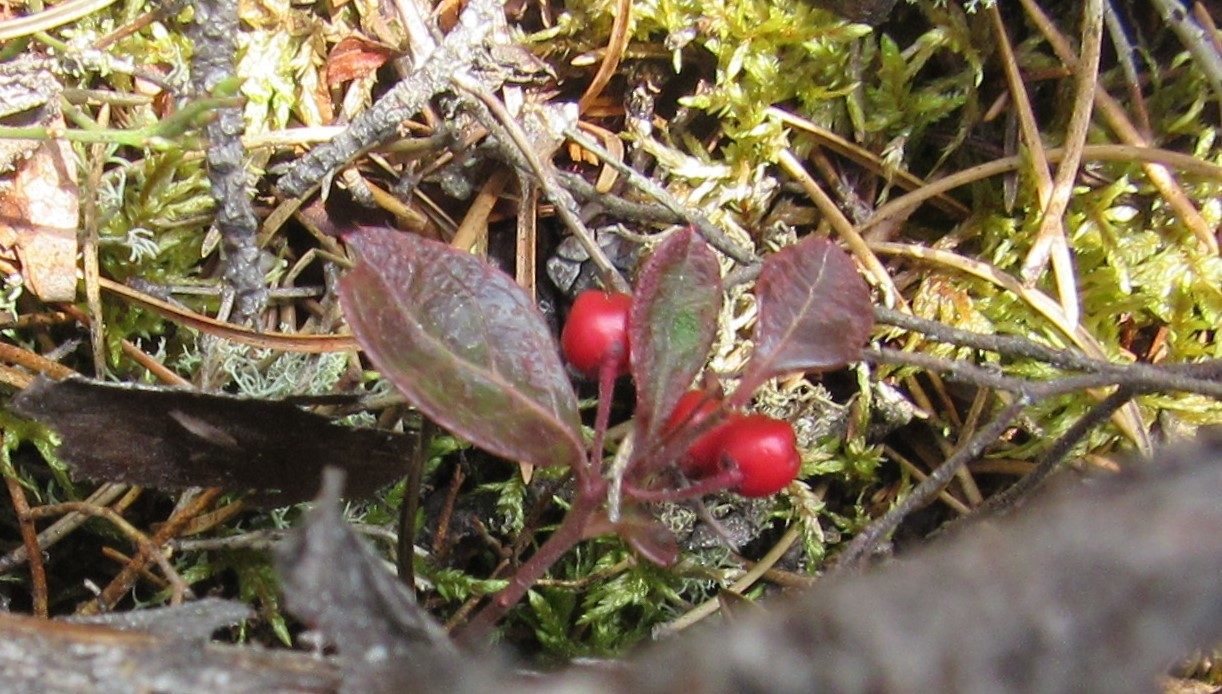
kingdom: Plantae
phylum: Tracheophyta
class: Magnoliopsida
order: Ericales
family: Ericaceae
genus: Gaultheria
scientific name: Gaultheria procumbens
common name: Checkerberry
